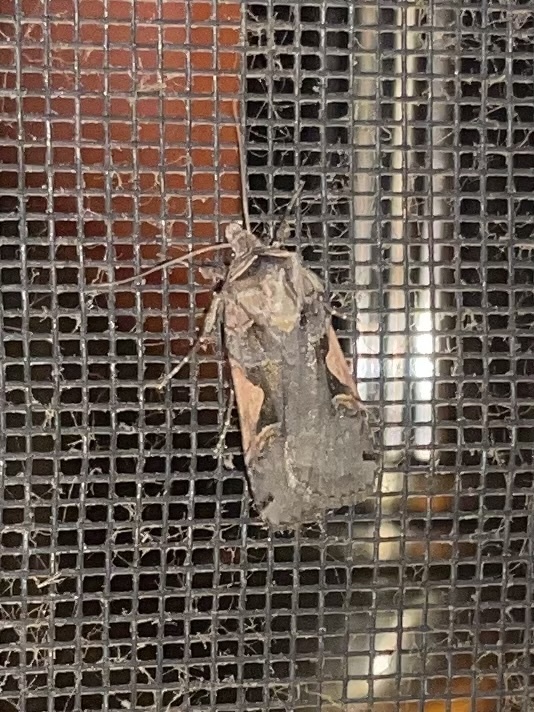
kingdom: Animalia
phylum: Arthropoda
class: Insecta
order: Lepidoptera
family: Noctuidae
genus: Xestia
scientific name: Xestia
